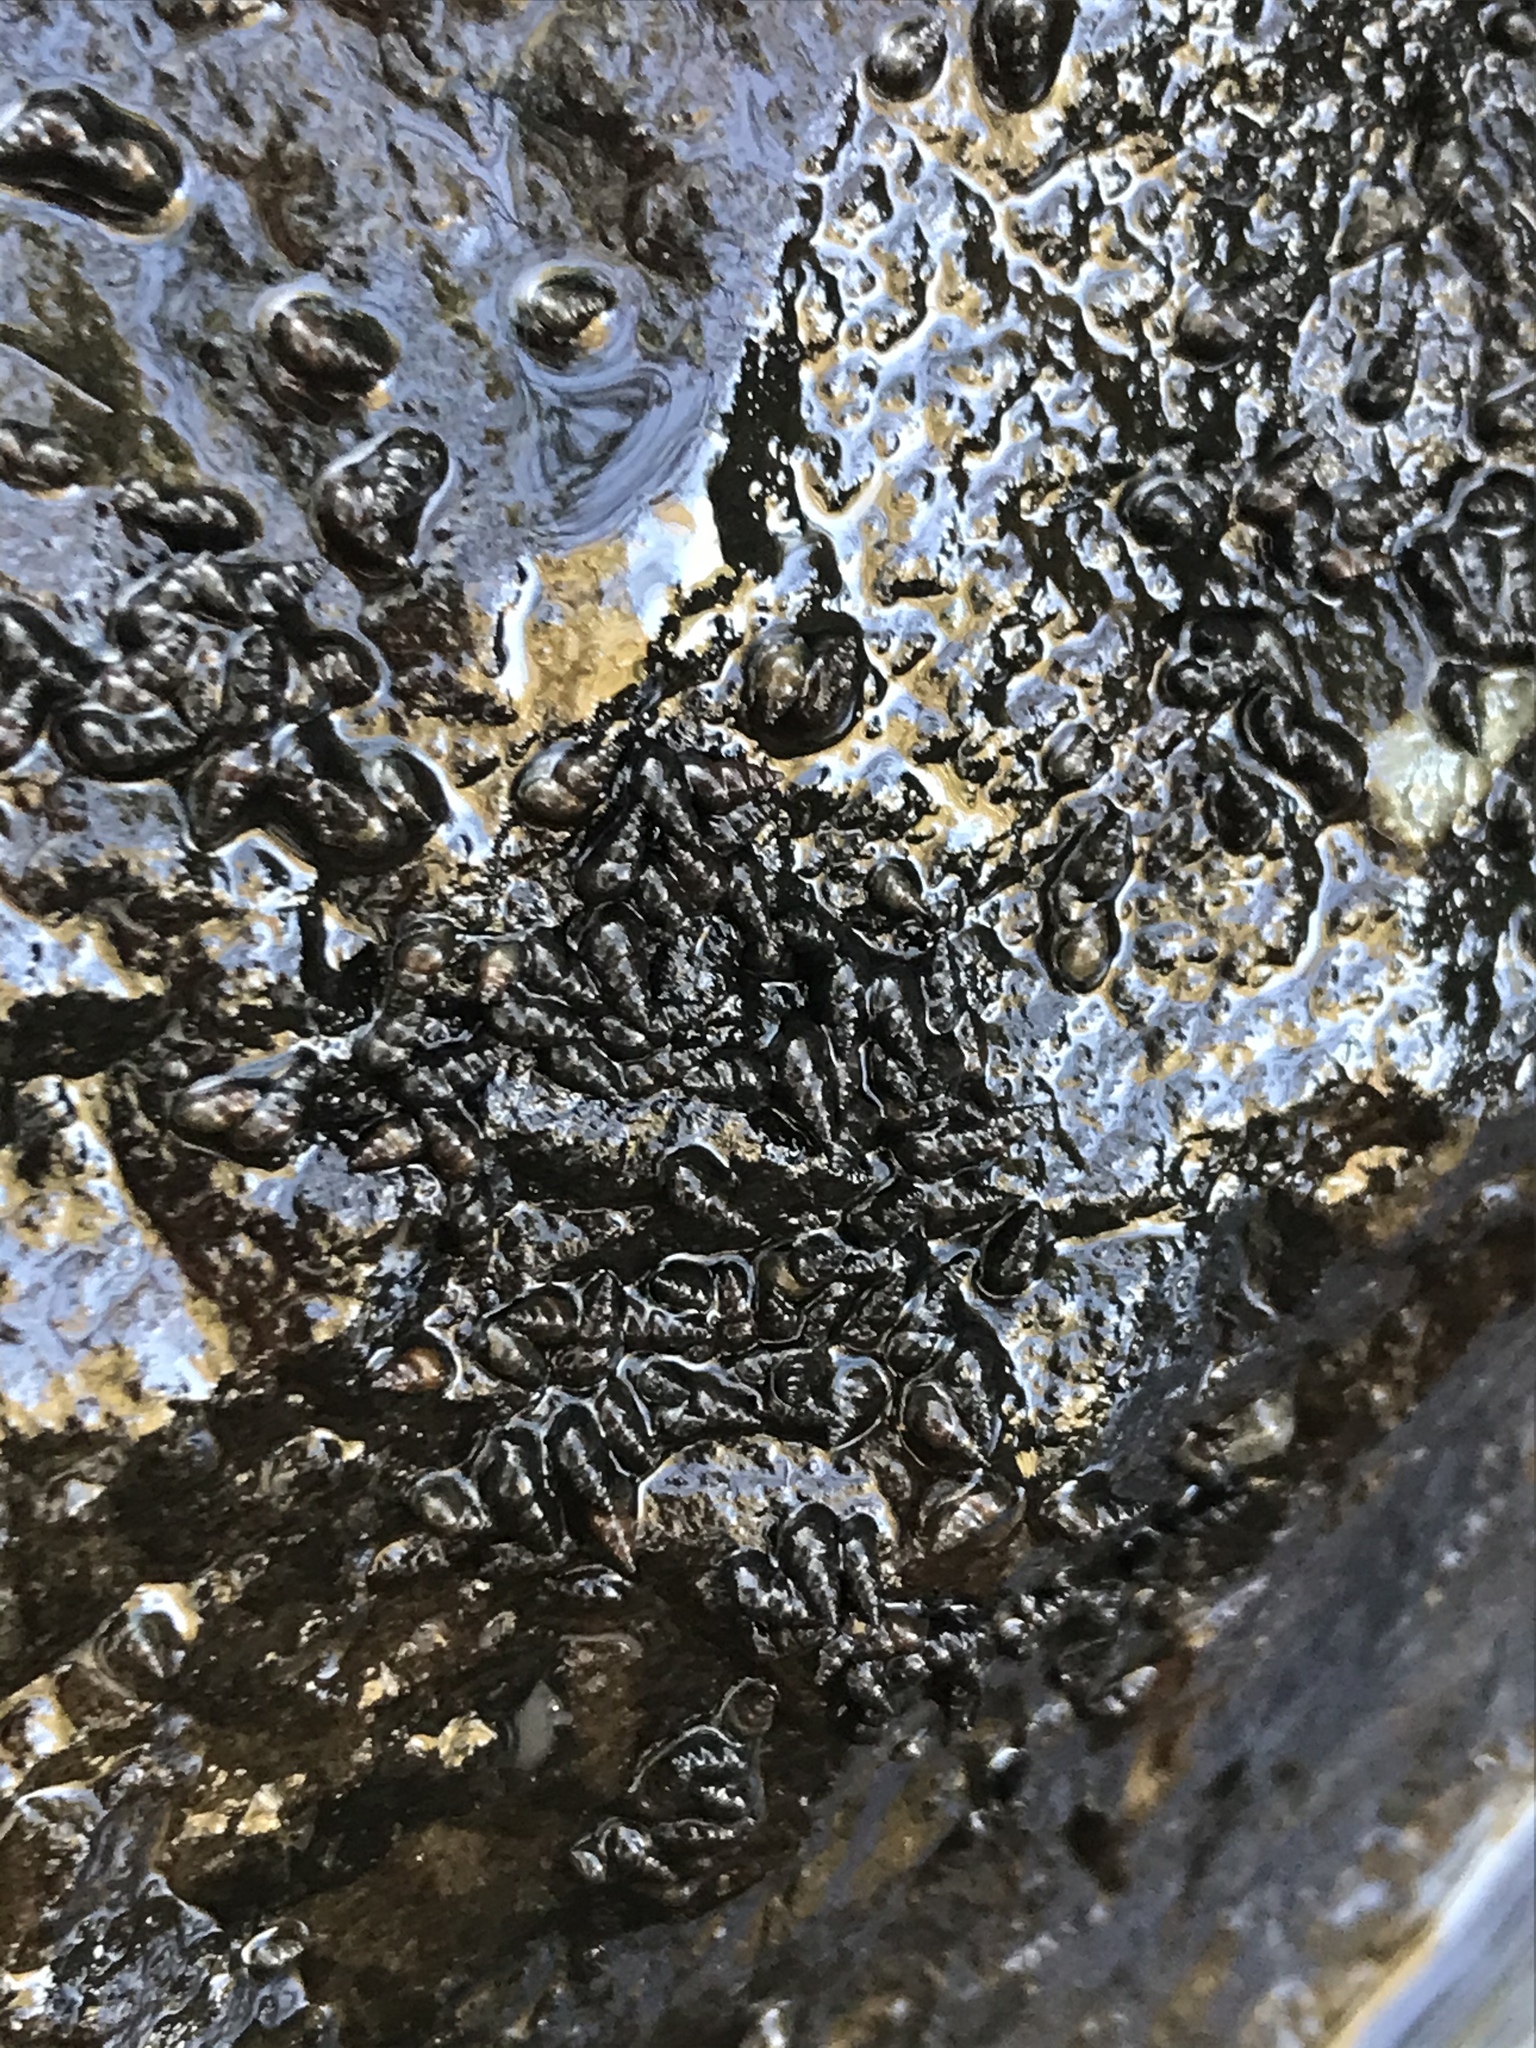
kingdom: Animalia
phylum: Mollusca
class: Gastropoda
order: Littorinimorpha
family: Tateidae
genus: Potamopyrgus
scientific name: Potamopyrgus antipodarum
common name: Jenkins' spire snail
